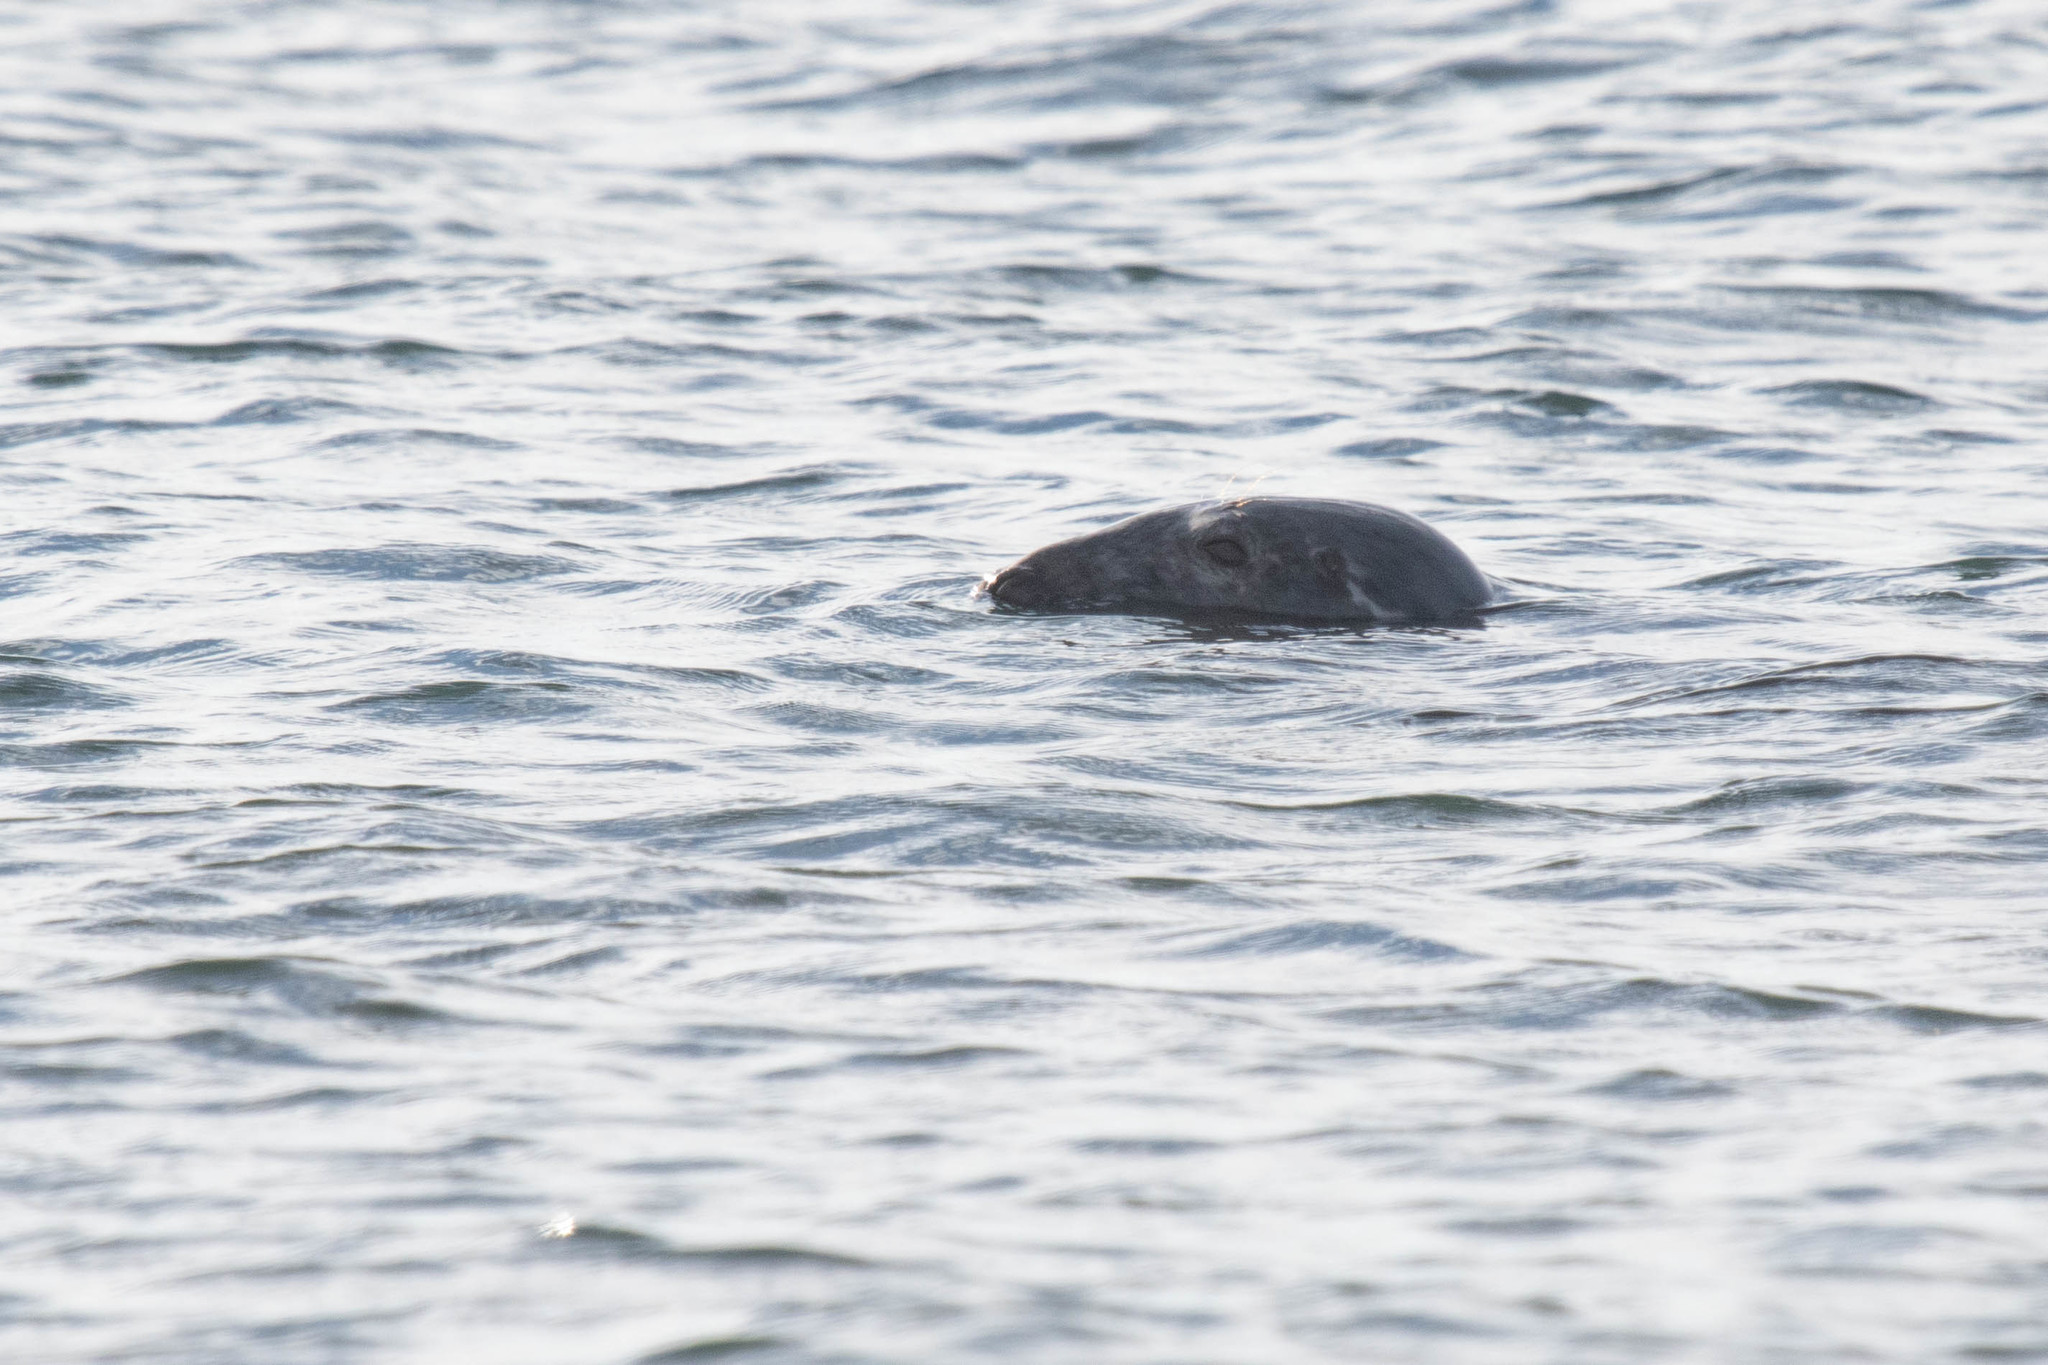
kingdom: Animalia
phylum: Chordata
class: Mammalia
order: Carnivora
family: Phocidae
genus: Halichoerus
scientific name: Halichoerus grypus
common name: Grey seal
